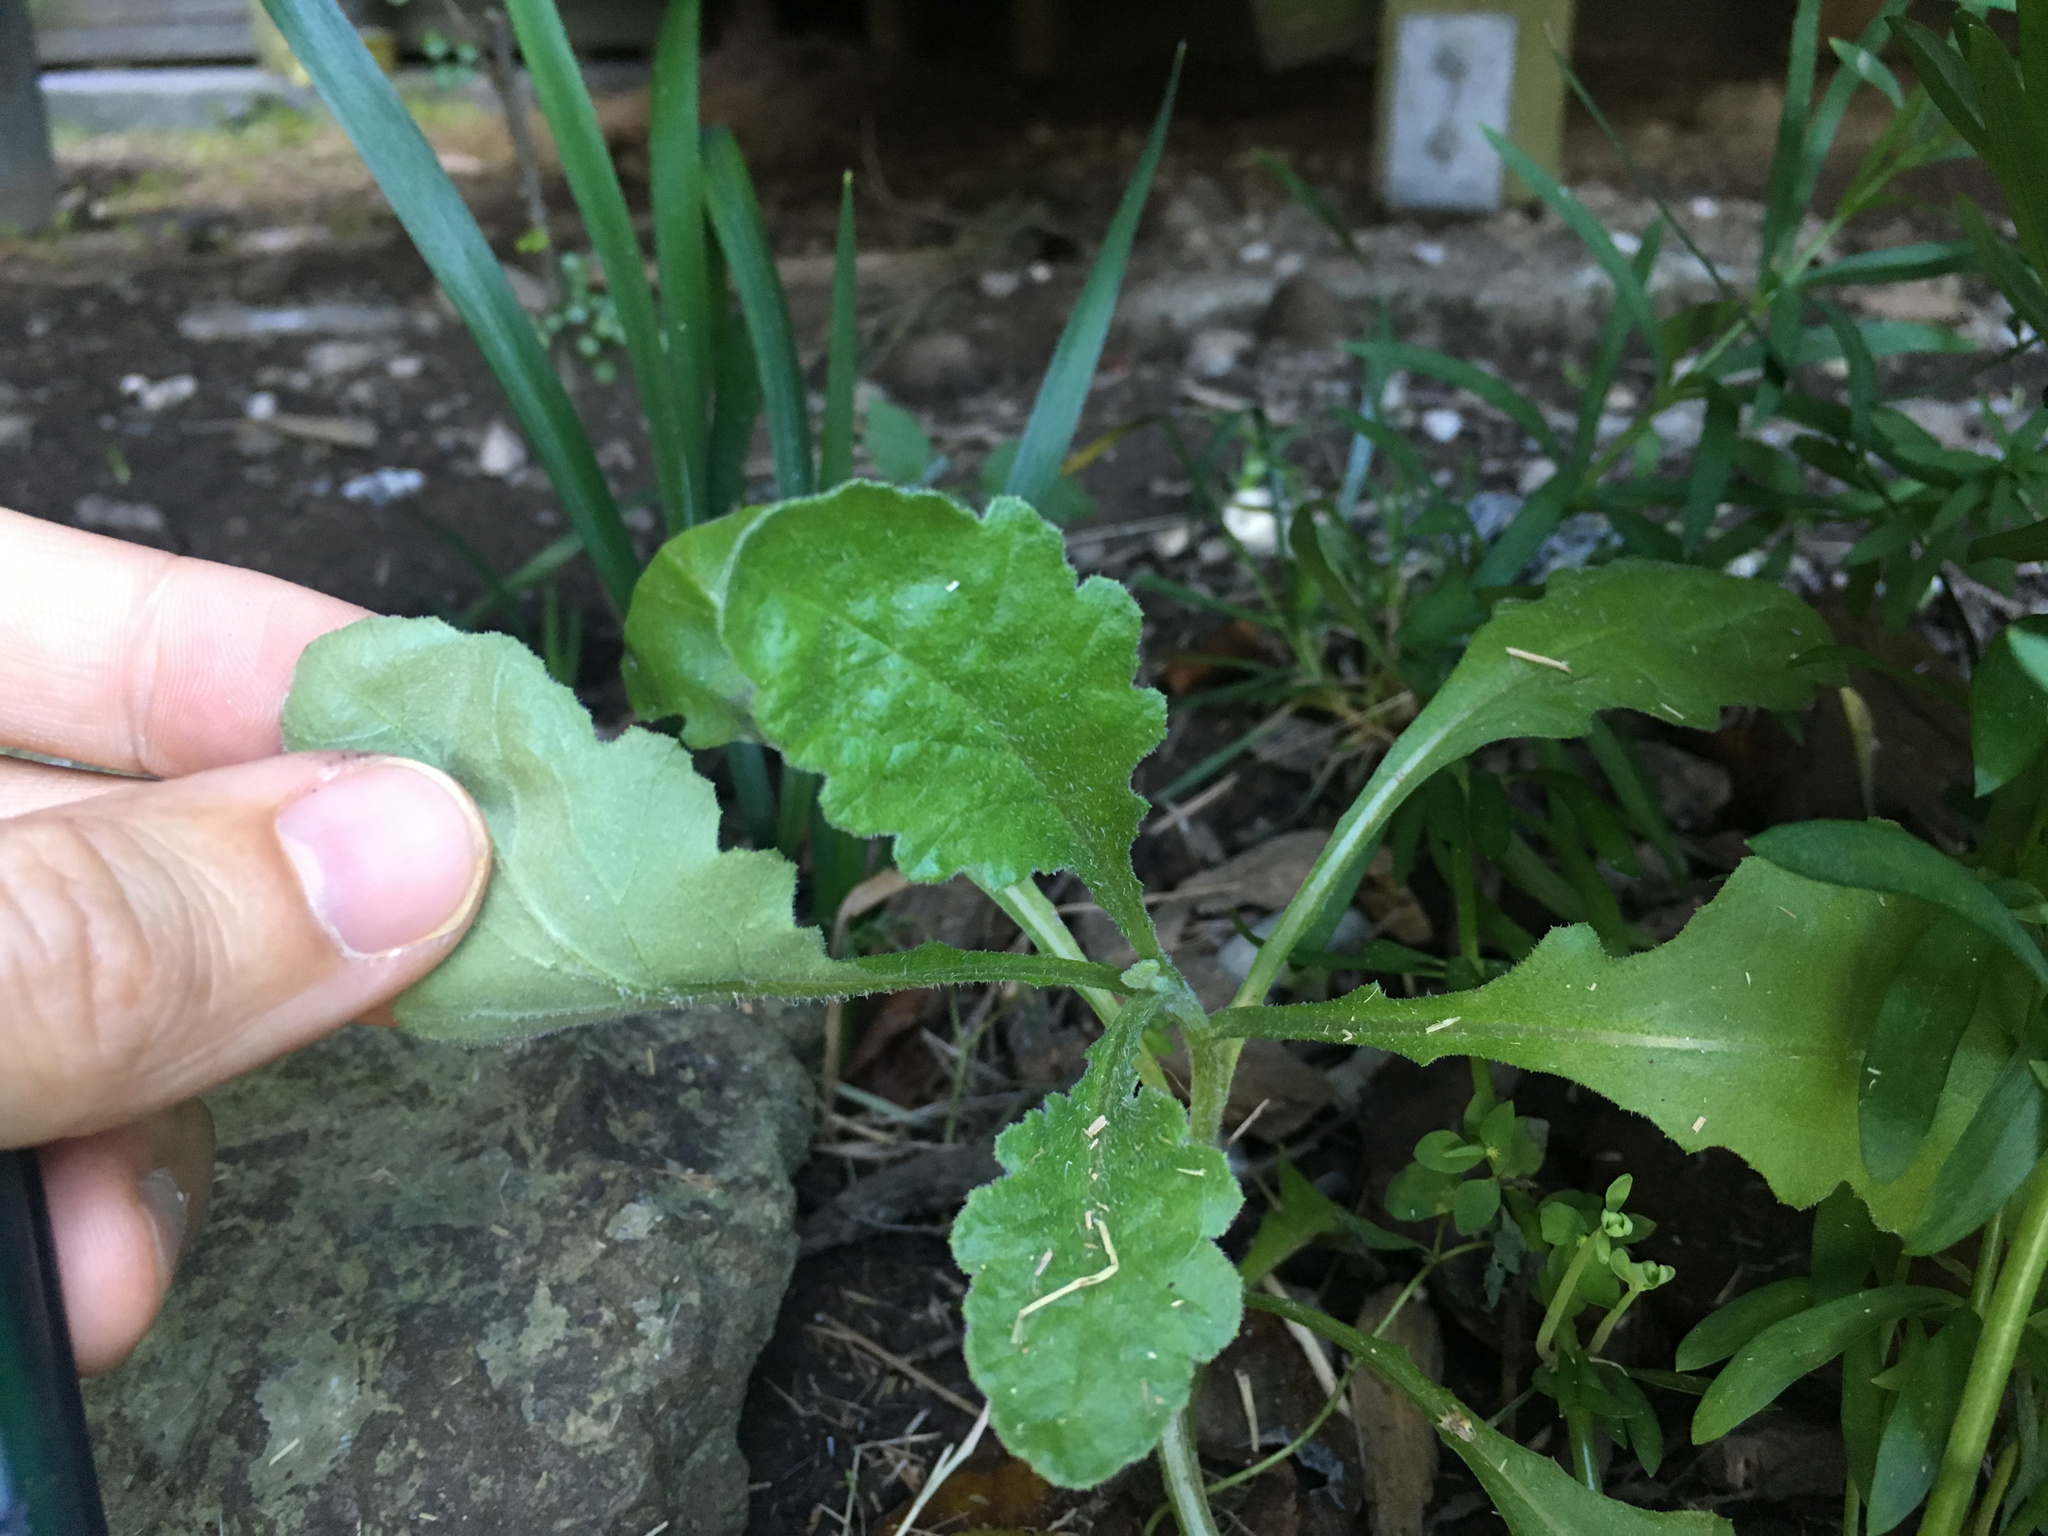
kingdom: Plantae
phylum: Tracheophyta
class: Magnoliopsida
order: Asterales
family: Asteraceae
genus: Senecio
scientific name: Senecio glomeratus
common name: Cutleaf burnweed
